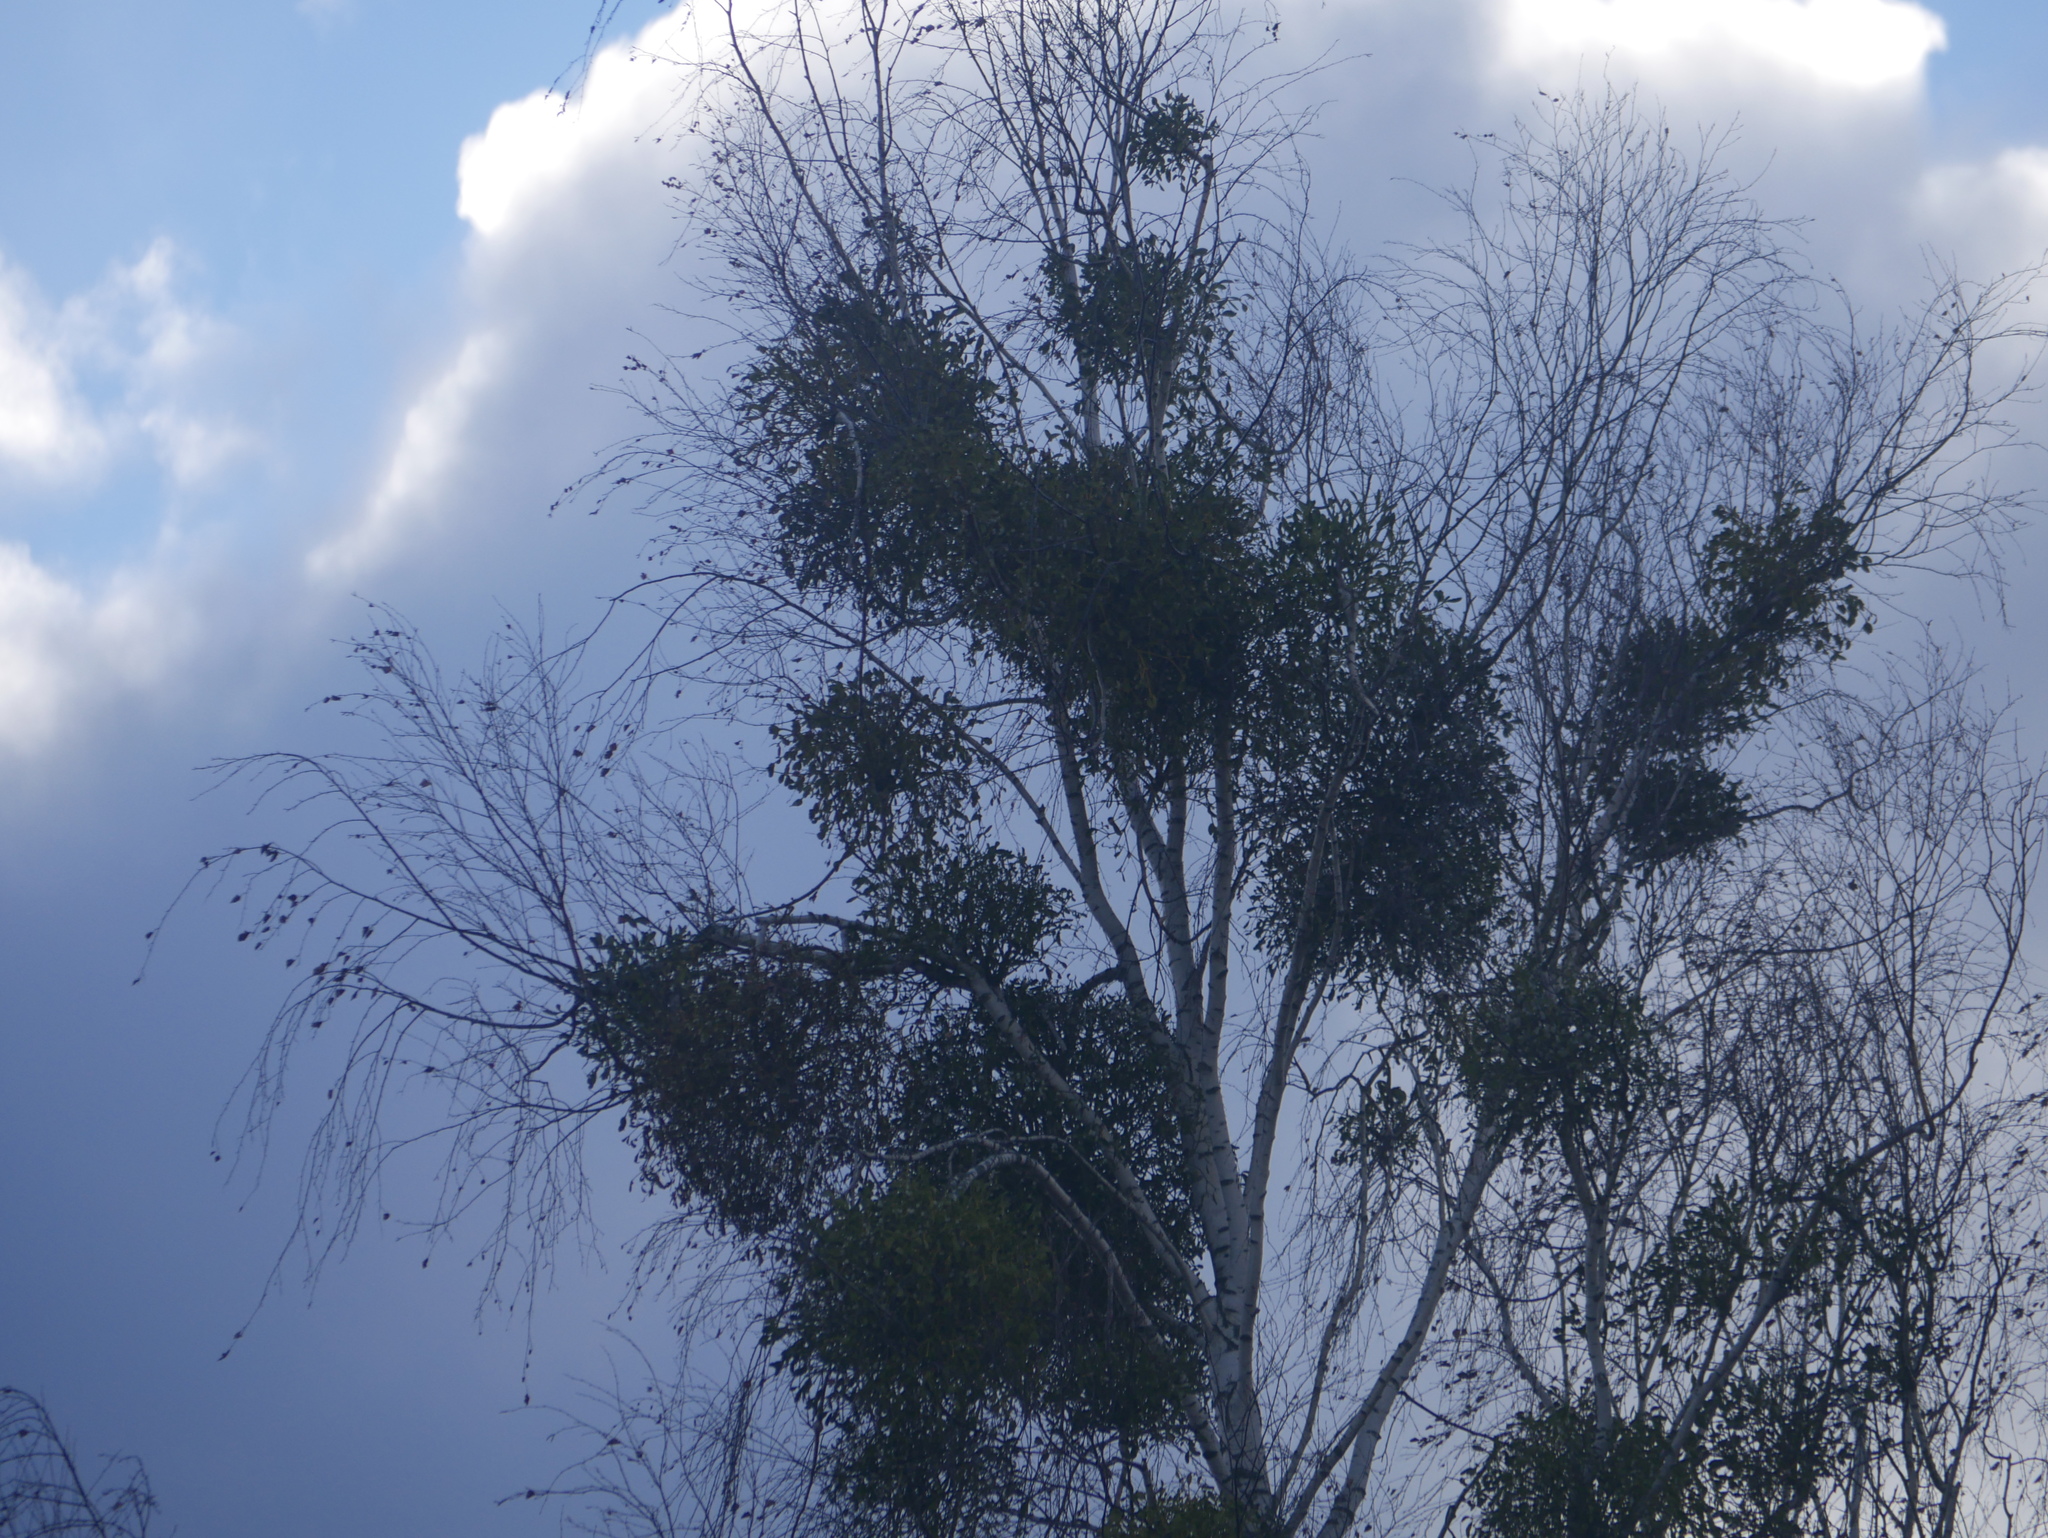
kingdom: Plantae
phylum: Tracheophyta
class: Magnoliopsida
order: Santalales
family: Viscaceae
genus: Viscum
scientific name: Viscum album
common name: Mistletoe
